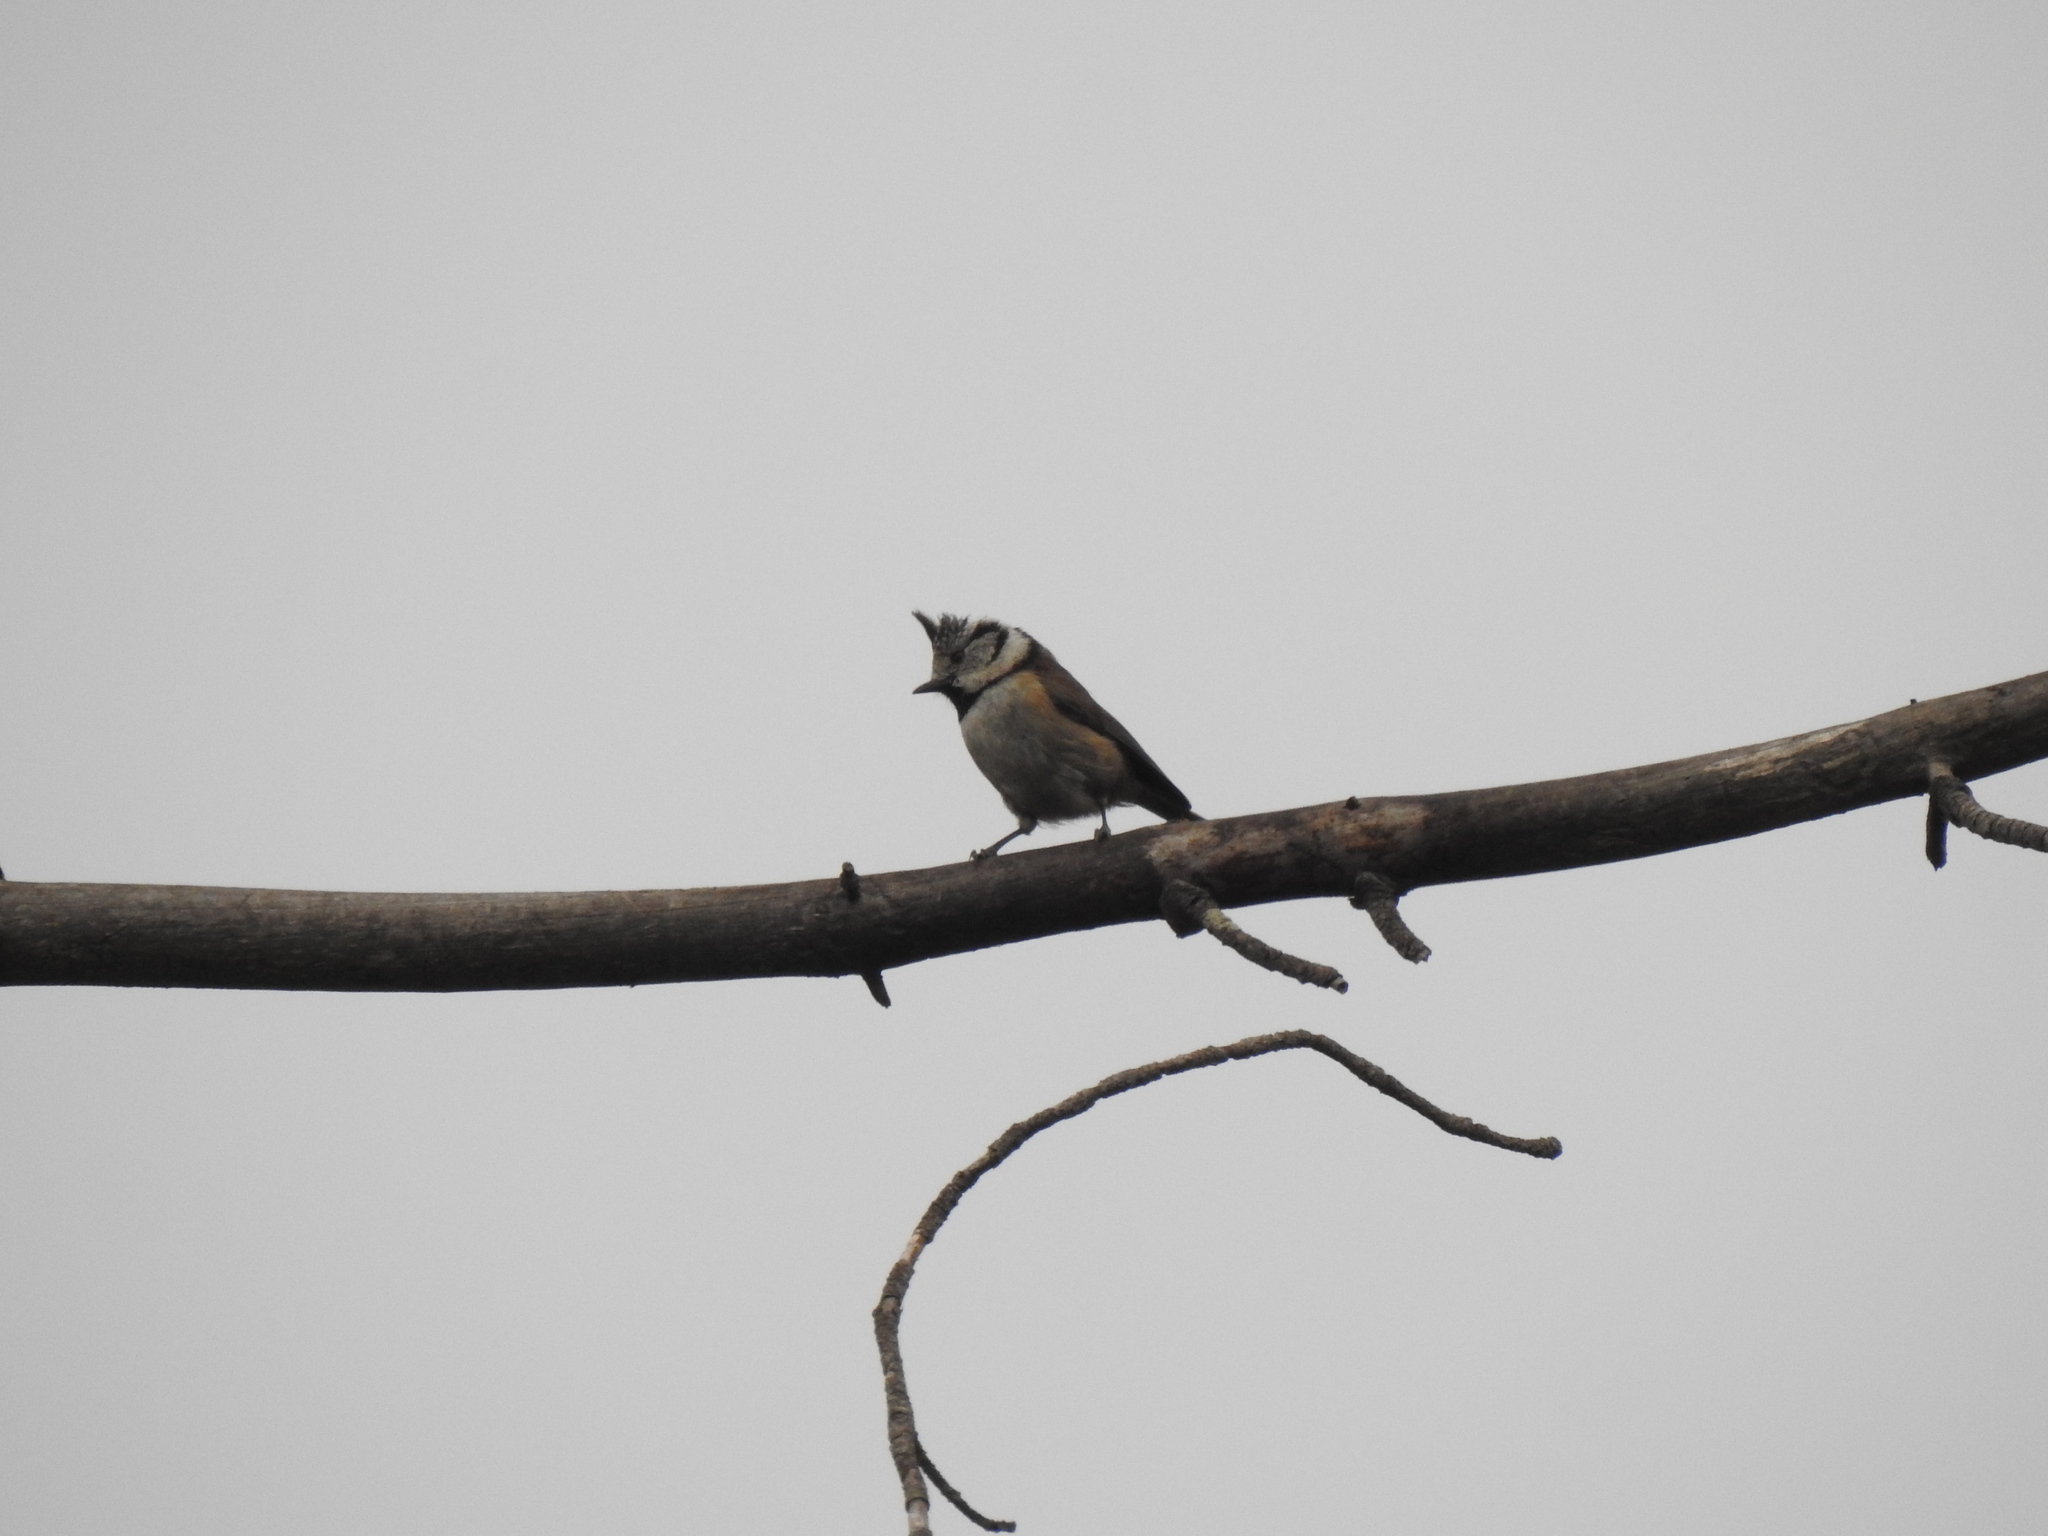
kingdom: Animalia
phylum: Chordata
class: Aves
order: Passeriformes
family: Paridae
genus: Lophophanes
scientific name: Lophophanes cristatus
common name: European crested tit
